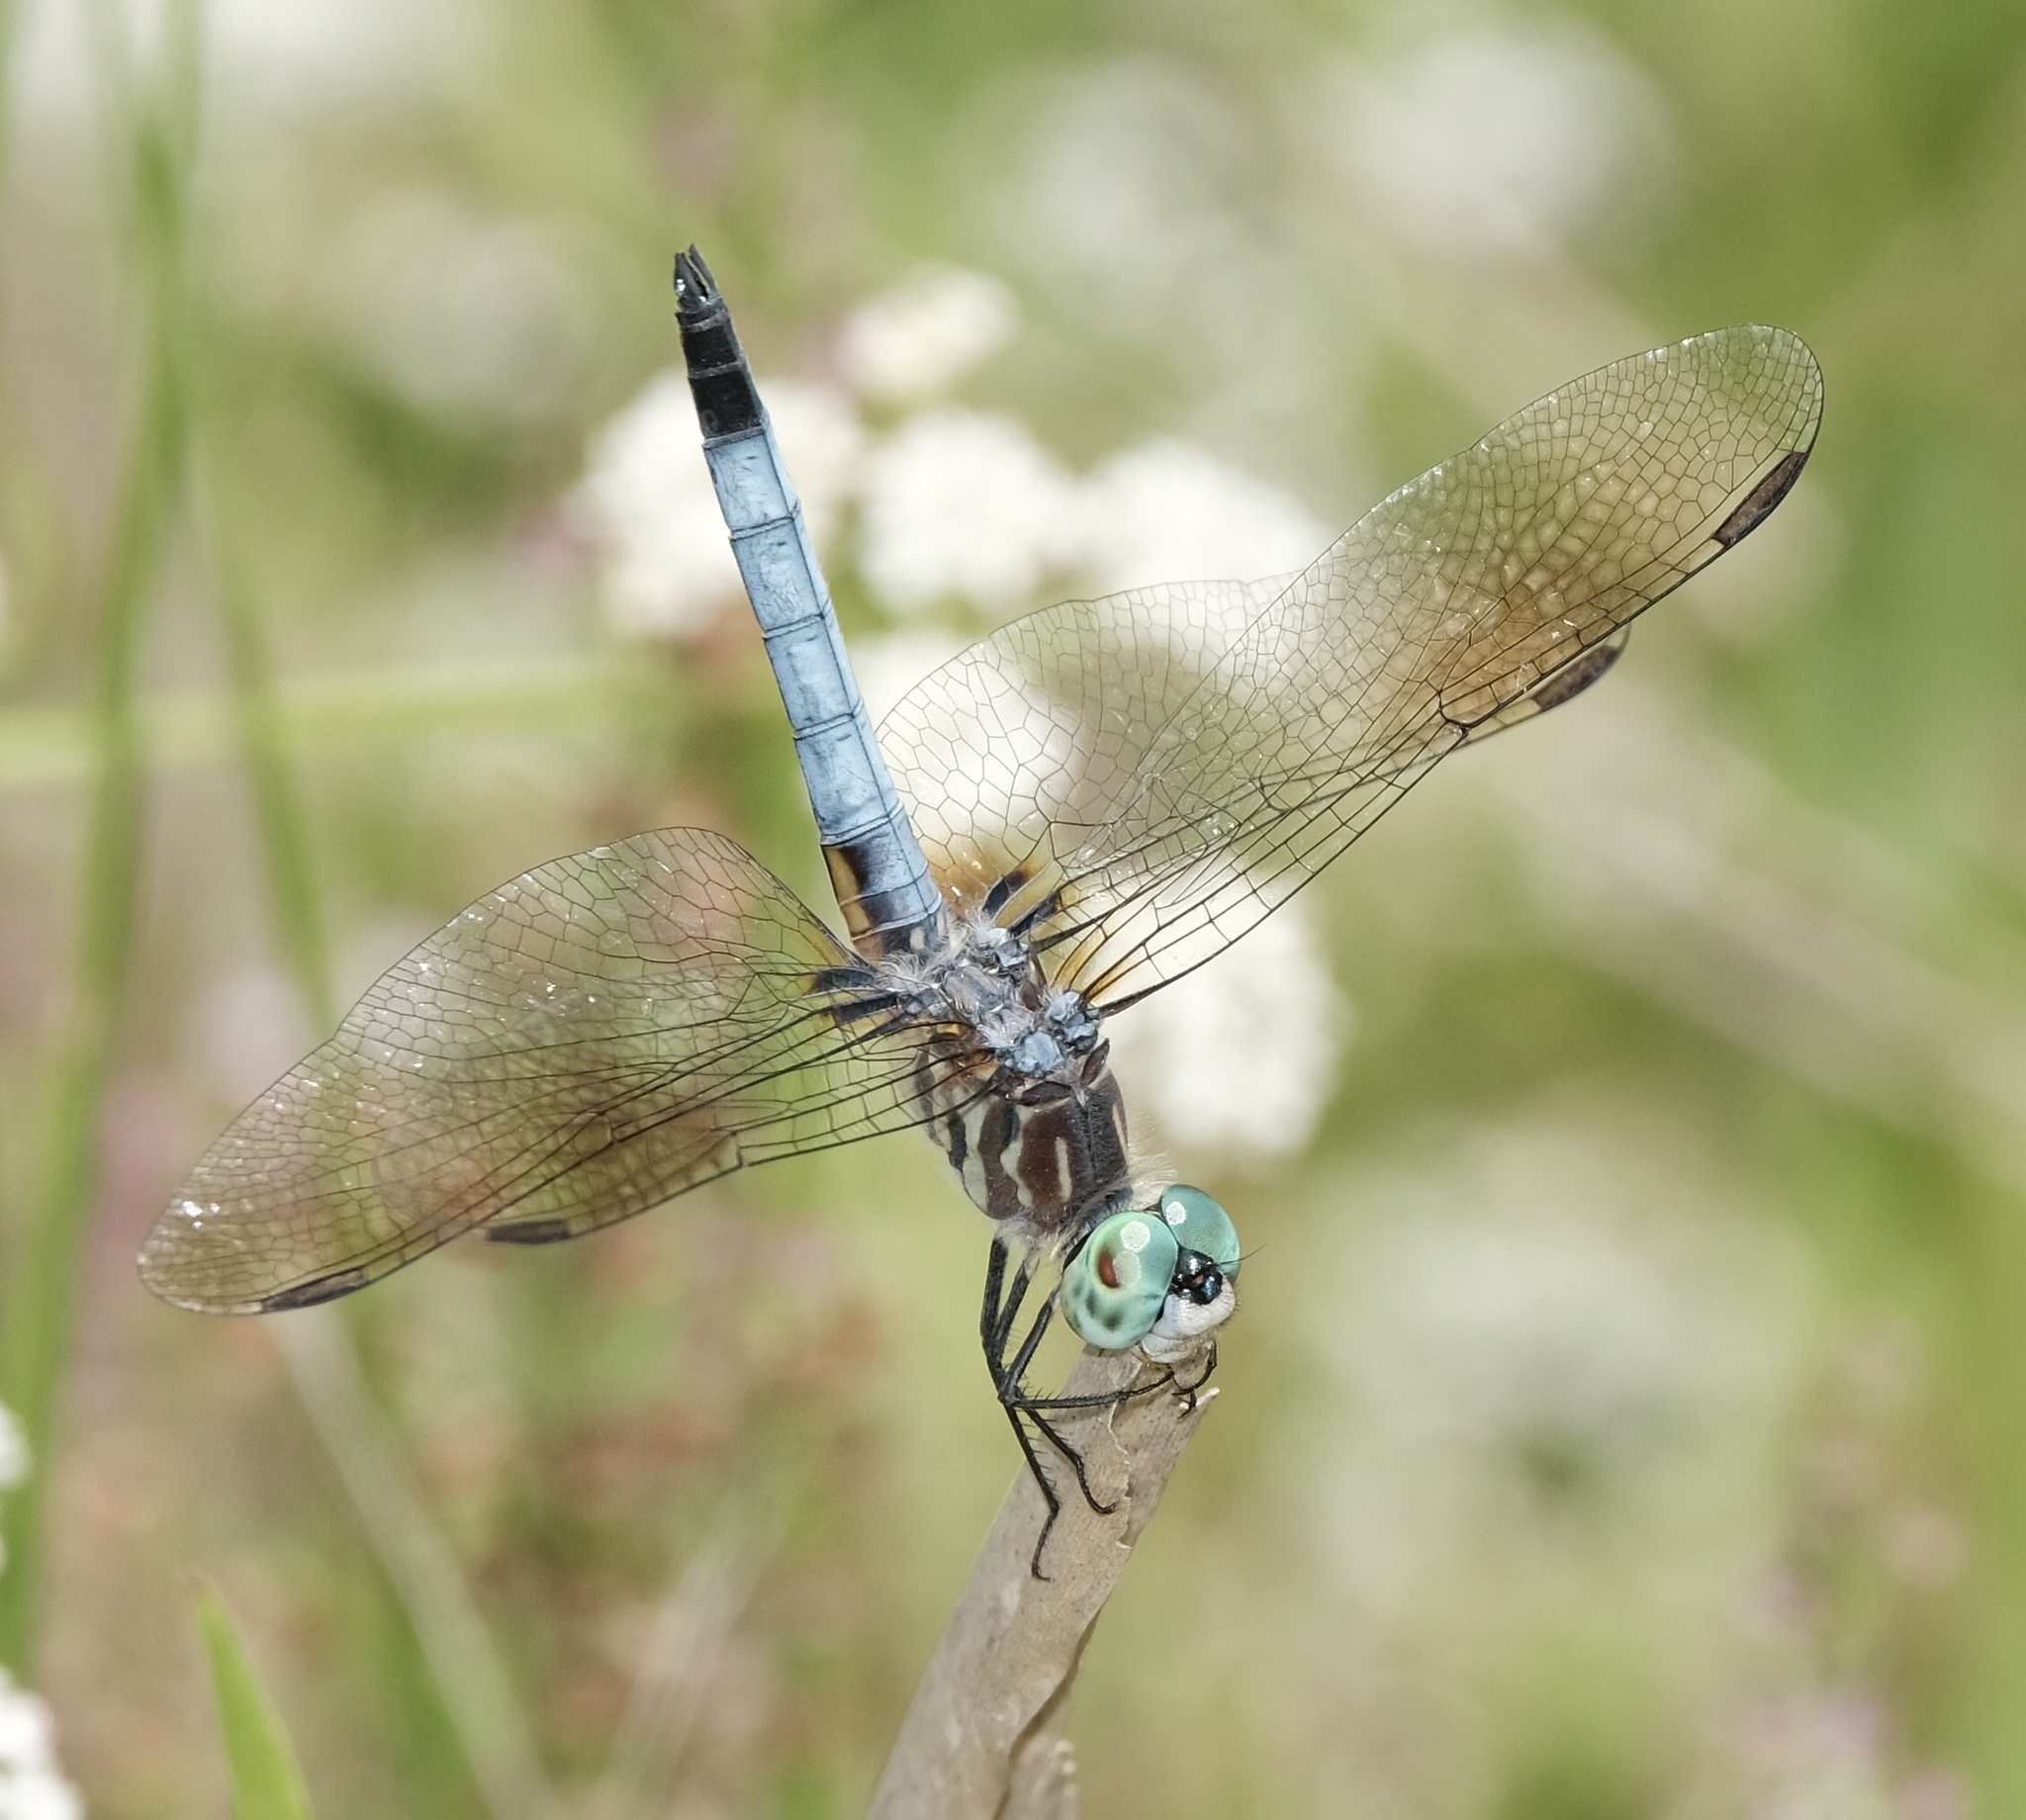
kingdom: Animalia
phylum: Arthropoda
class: Insecta
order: Odonata
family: Libellulidae
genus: Pachydiplax
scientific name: Pachydiplax longipennis
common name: Blue dasher
